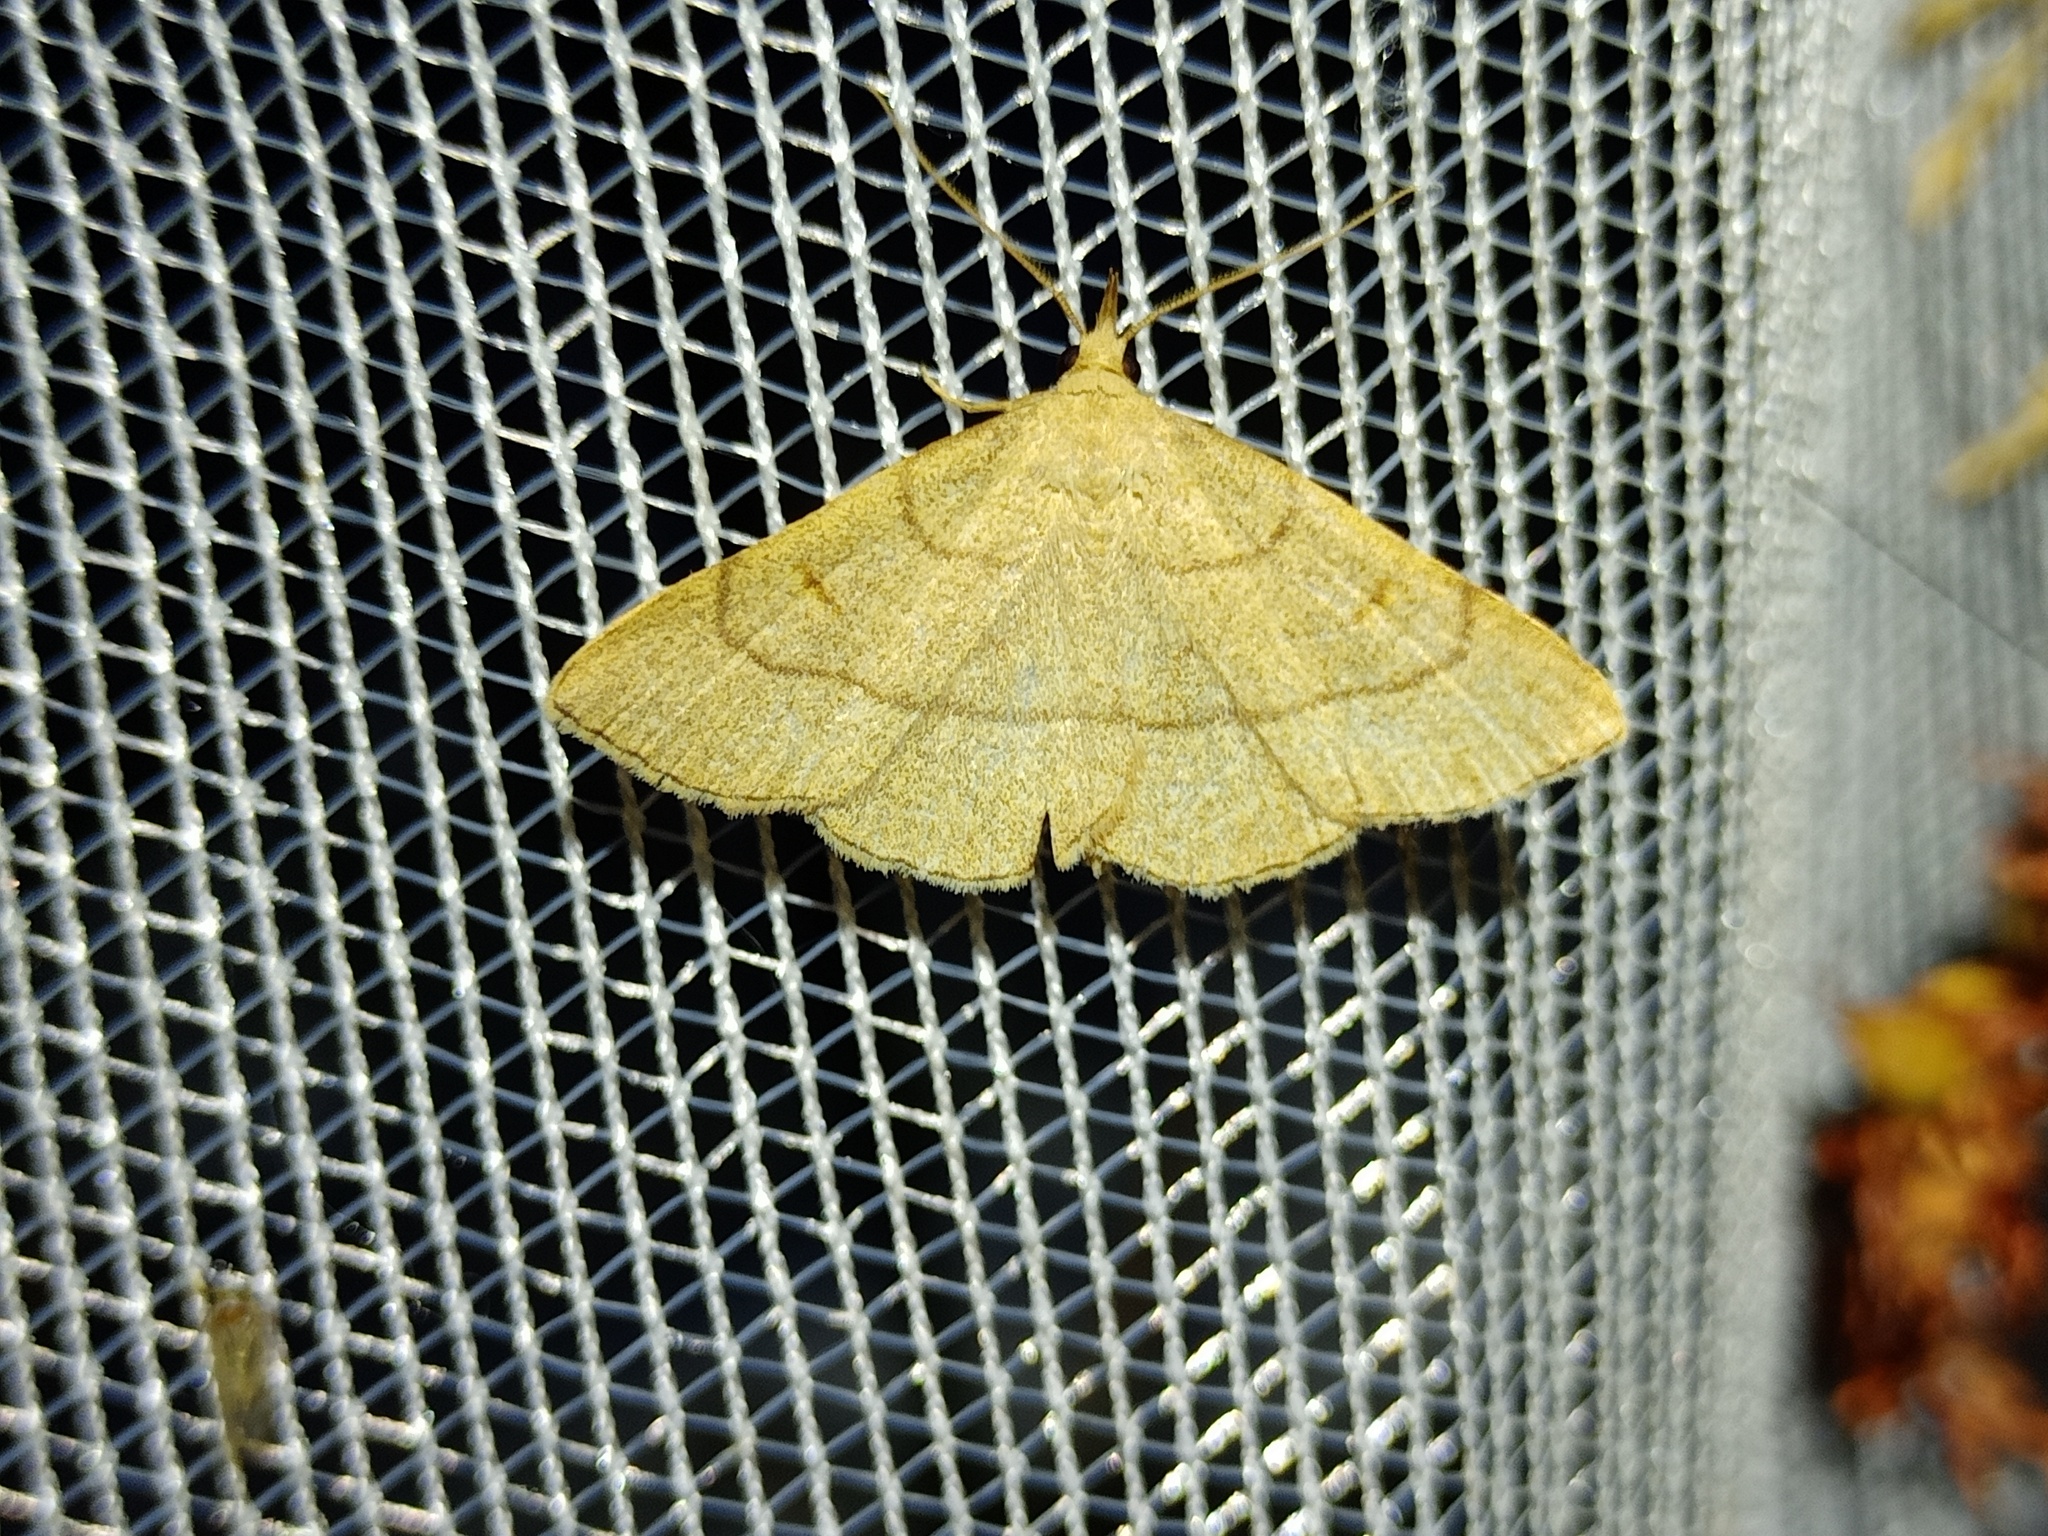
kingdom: Animalia
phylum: Arthropoda
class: Insecta
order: Lepidoptera
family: Erebidae
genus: Paracolax
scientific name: Paracolax tristalis
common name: Clay fan-foot
